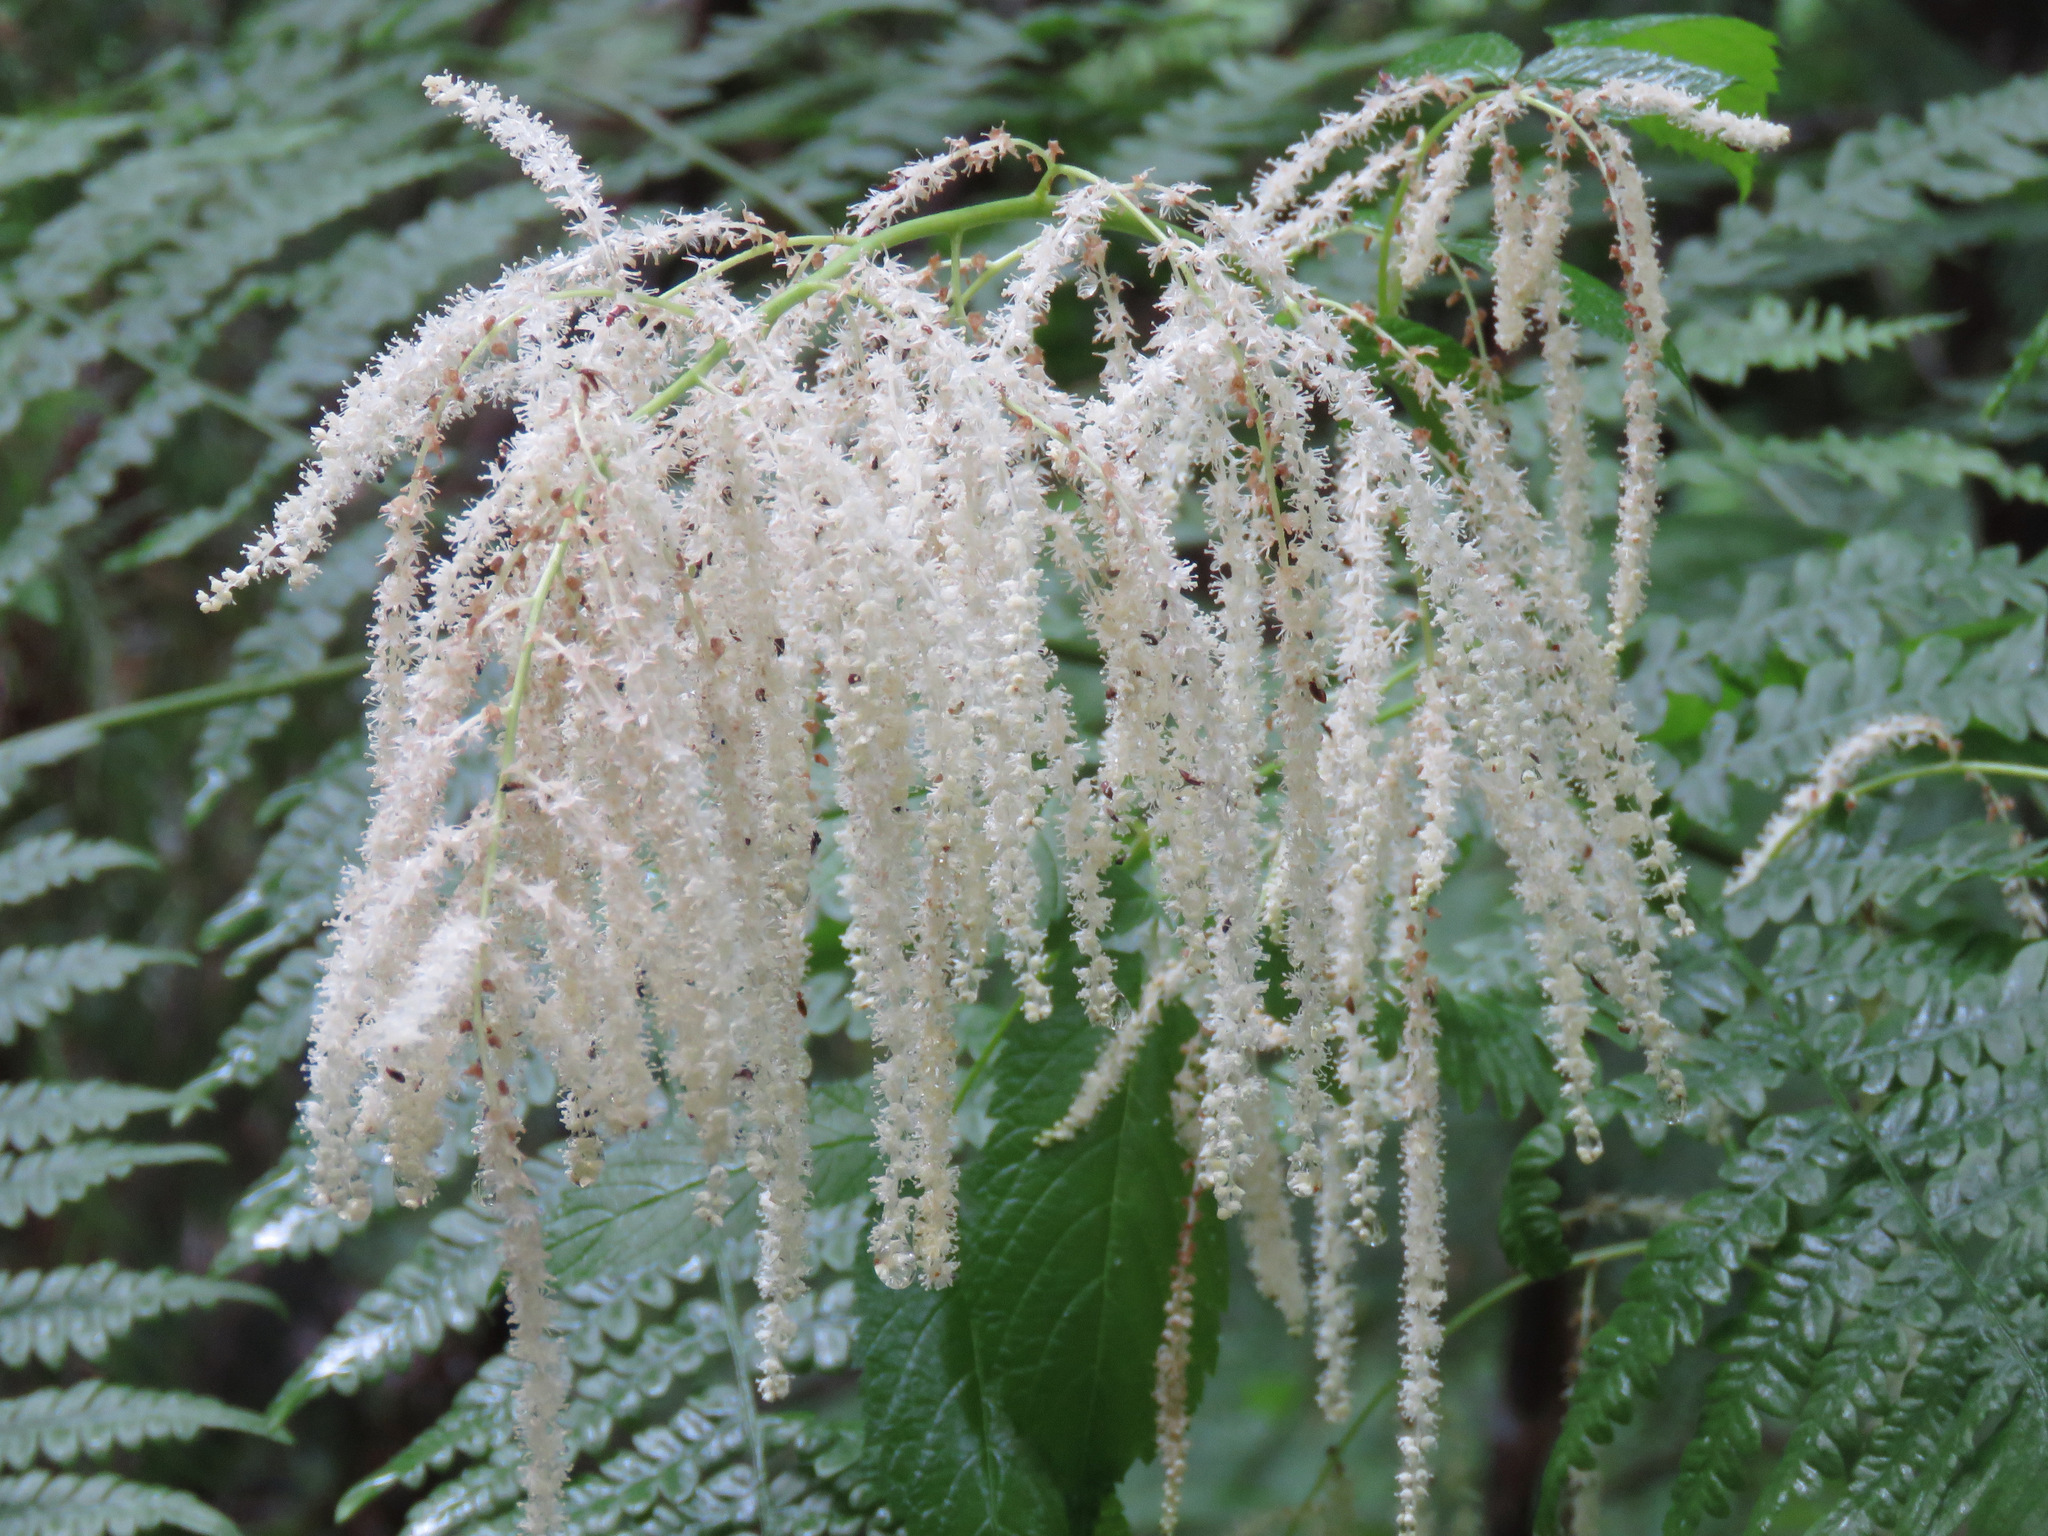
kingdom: Plantae
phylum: Tracheophyta
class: Magnoliopsida
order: Rosales
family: Rosaceae
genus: Aruncus
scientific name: Aruncus dioicus
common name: Buck's-beard
